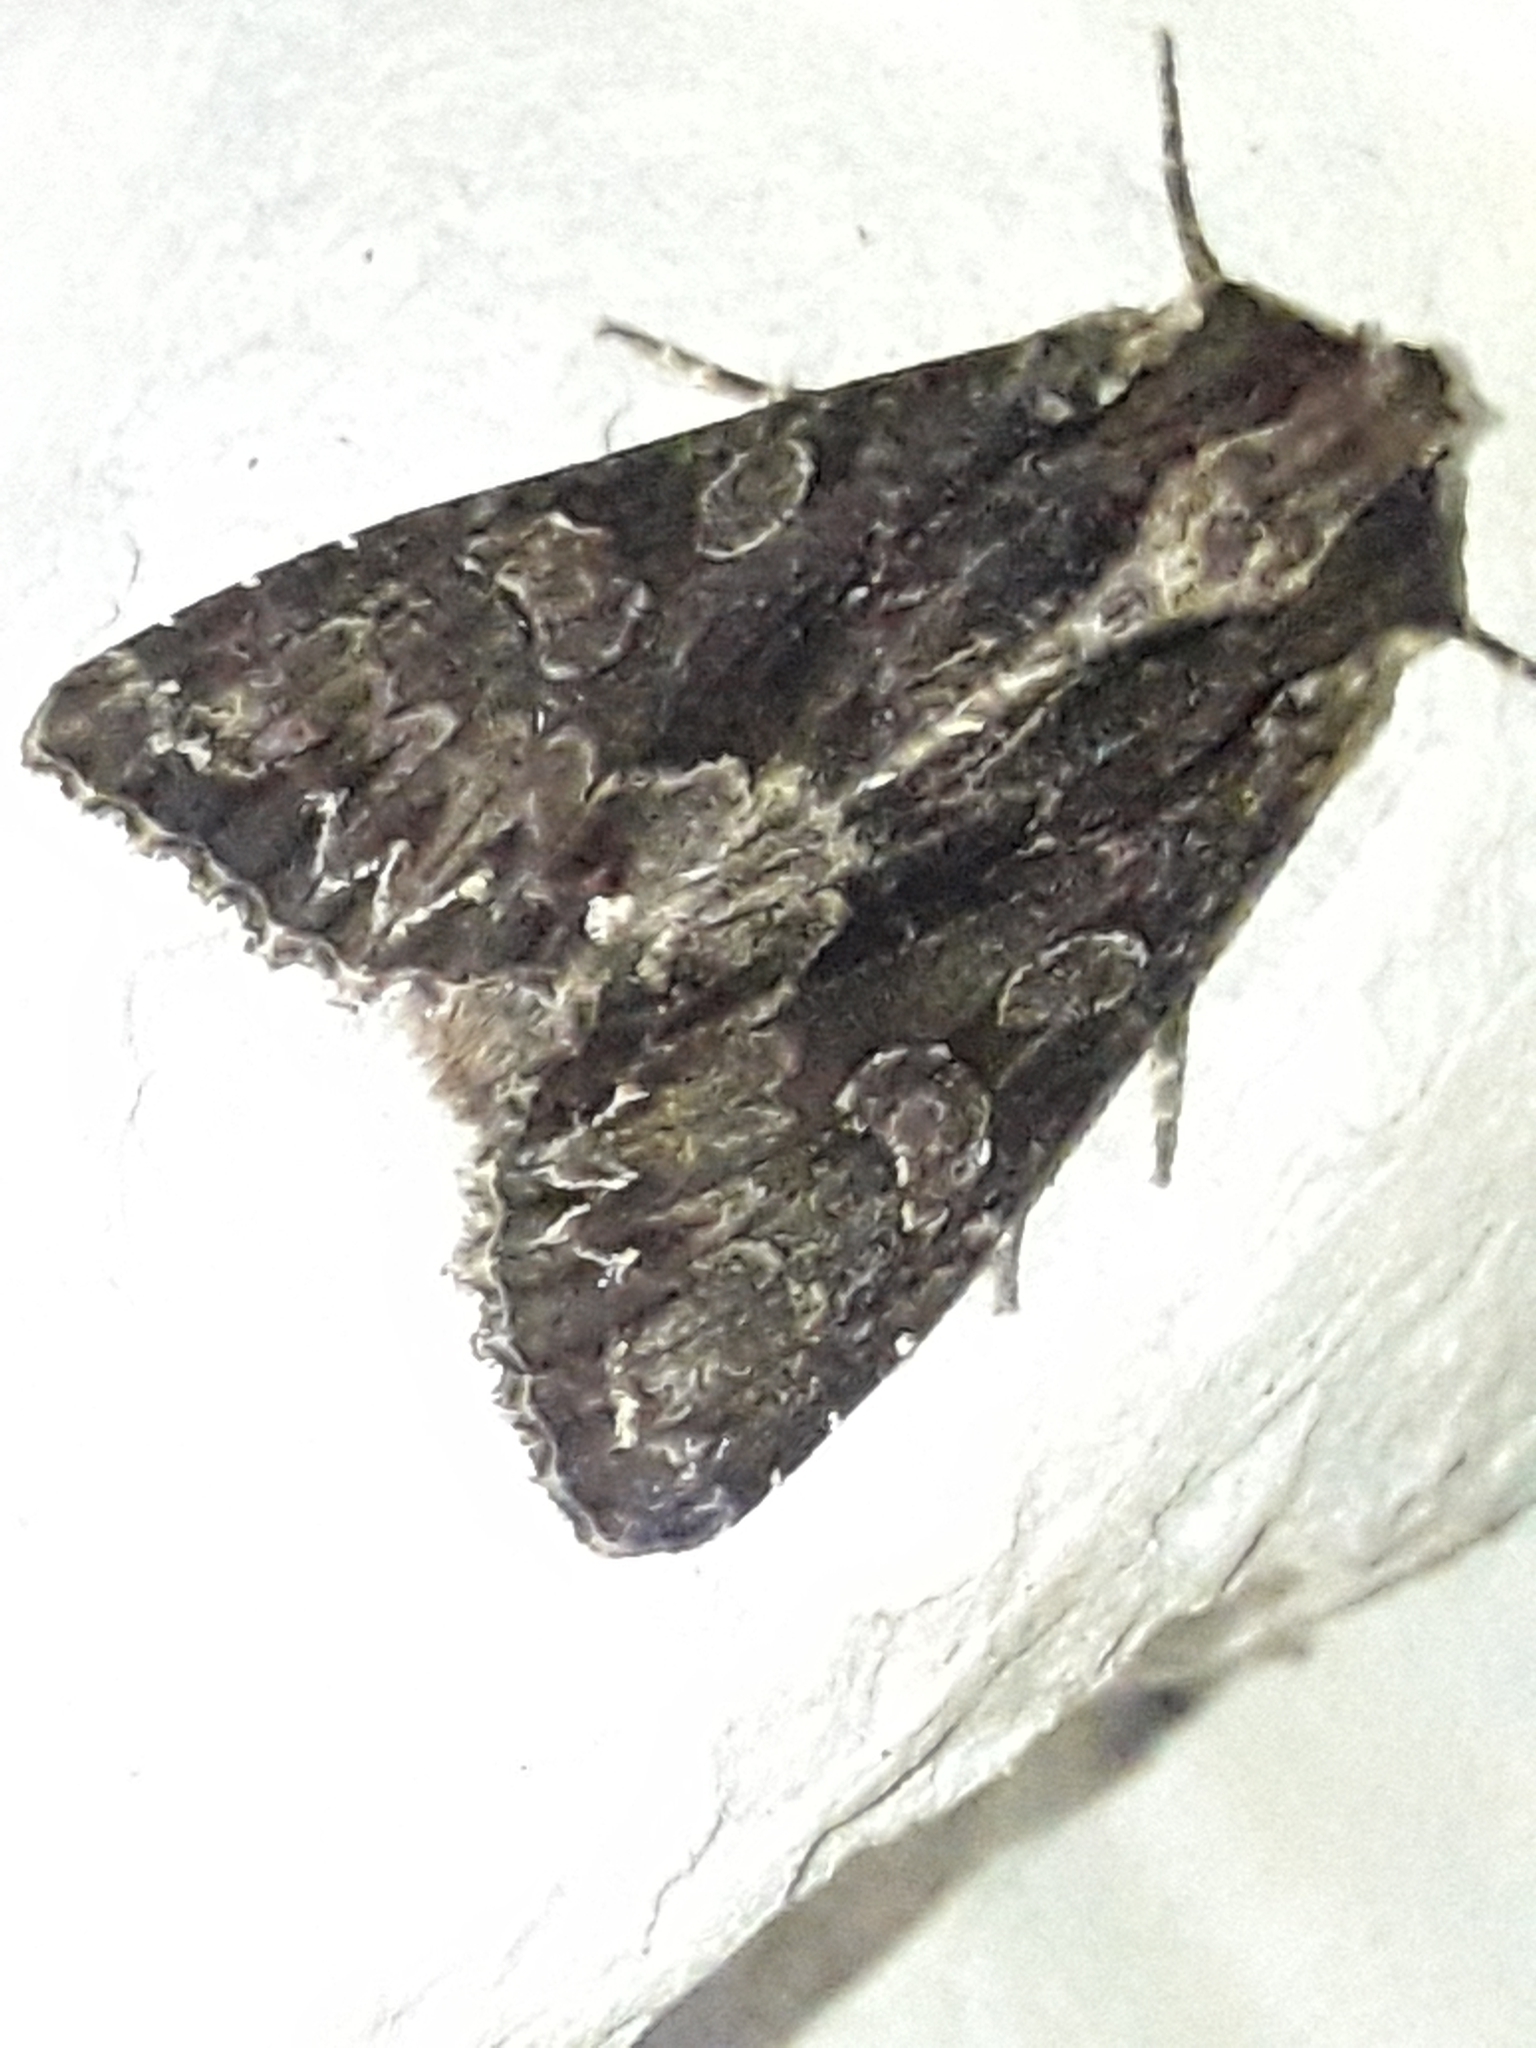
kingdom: Animalia
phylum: Arthropoda
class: Insecta
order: Lepidoptera
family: Noctuidae
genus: Apamea
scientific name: Apamea monoglypha
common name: Dark arches
